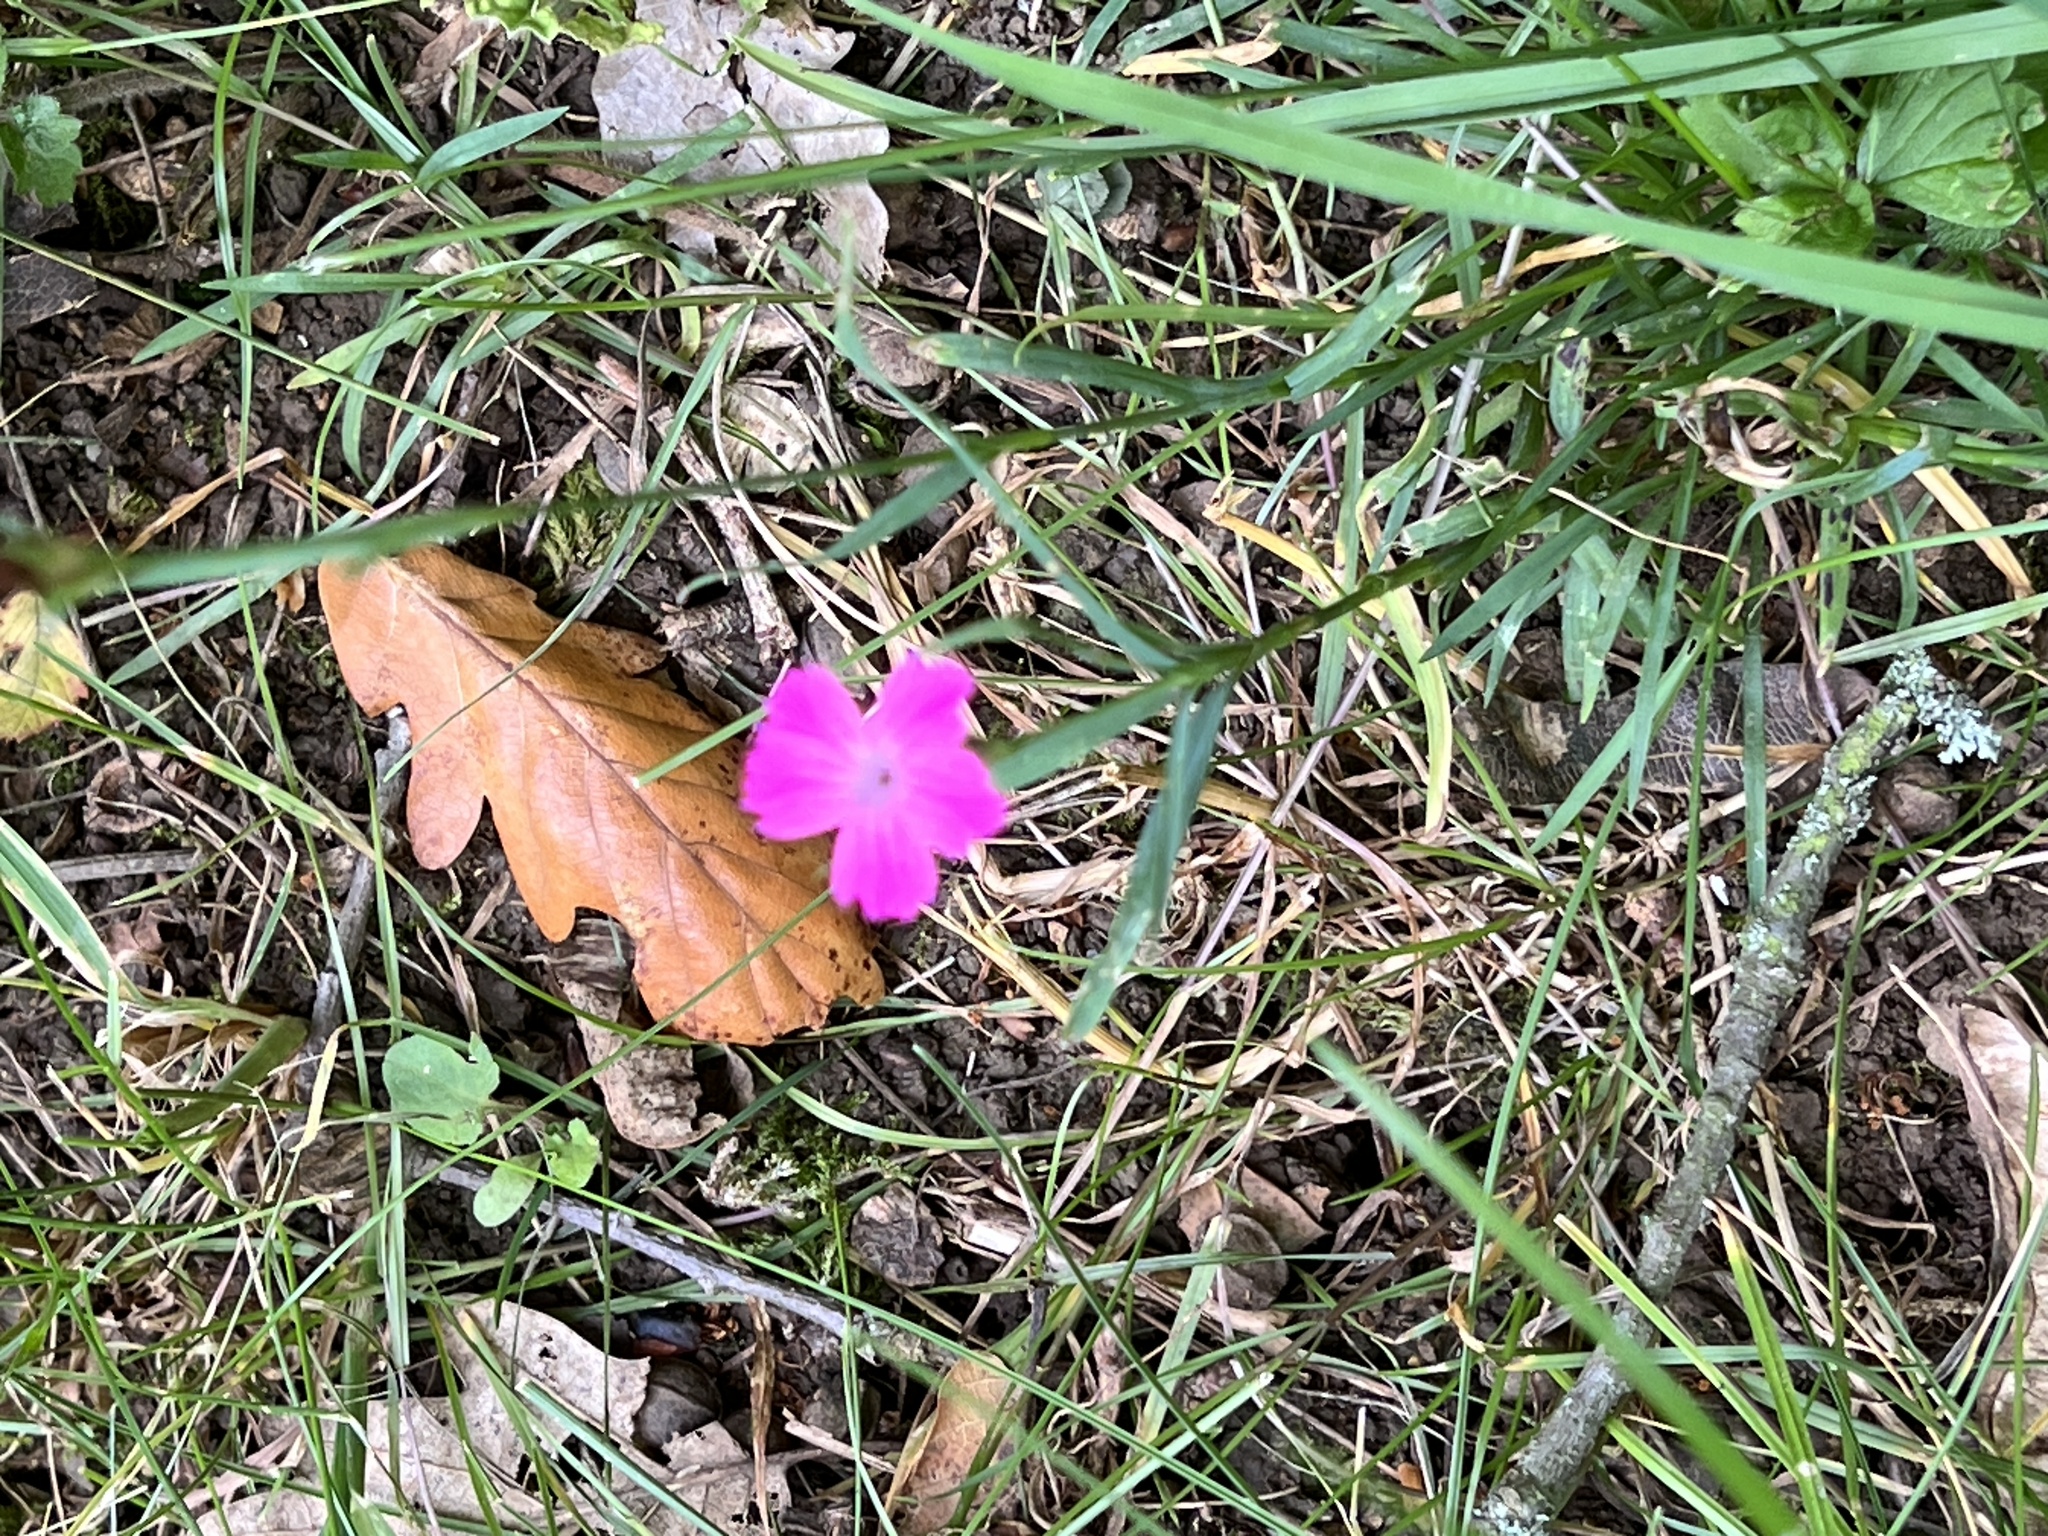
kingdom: Plantae
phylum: Tracheophyta
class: Magnoliopsida
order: Caryophyllales
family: Caryophyllaceae
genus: Dianthus
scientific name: Dianthus carthusianorum
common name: Carthusian pink
